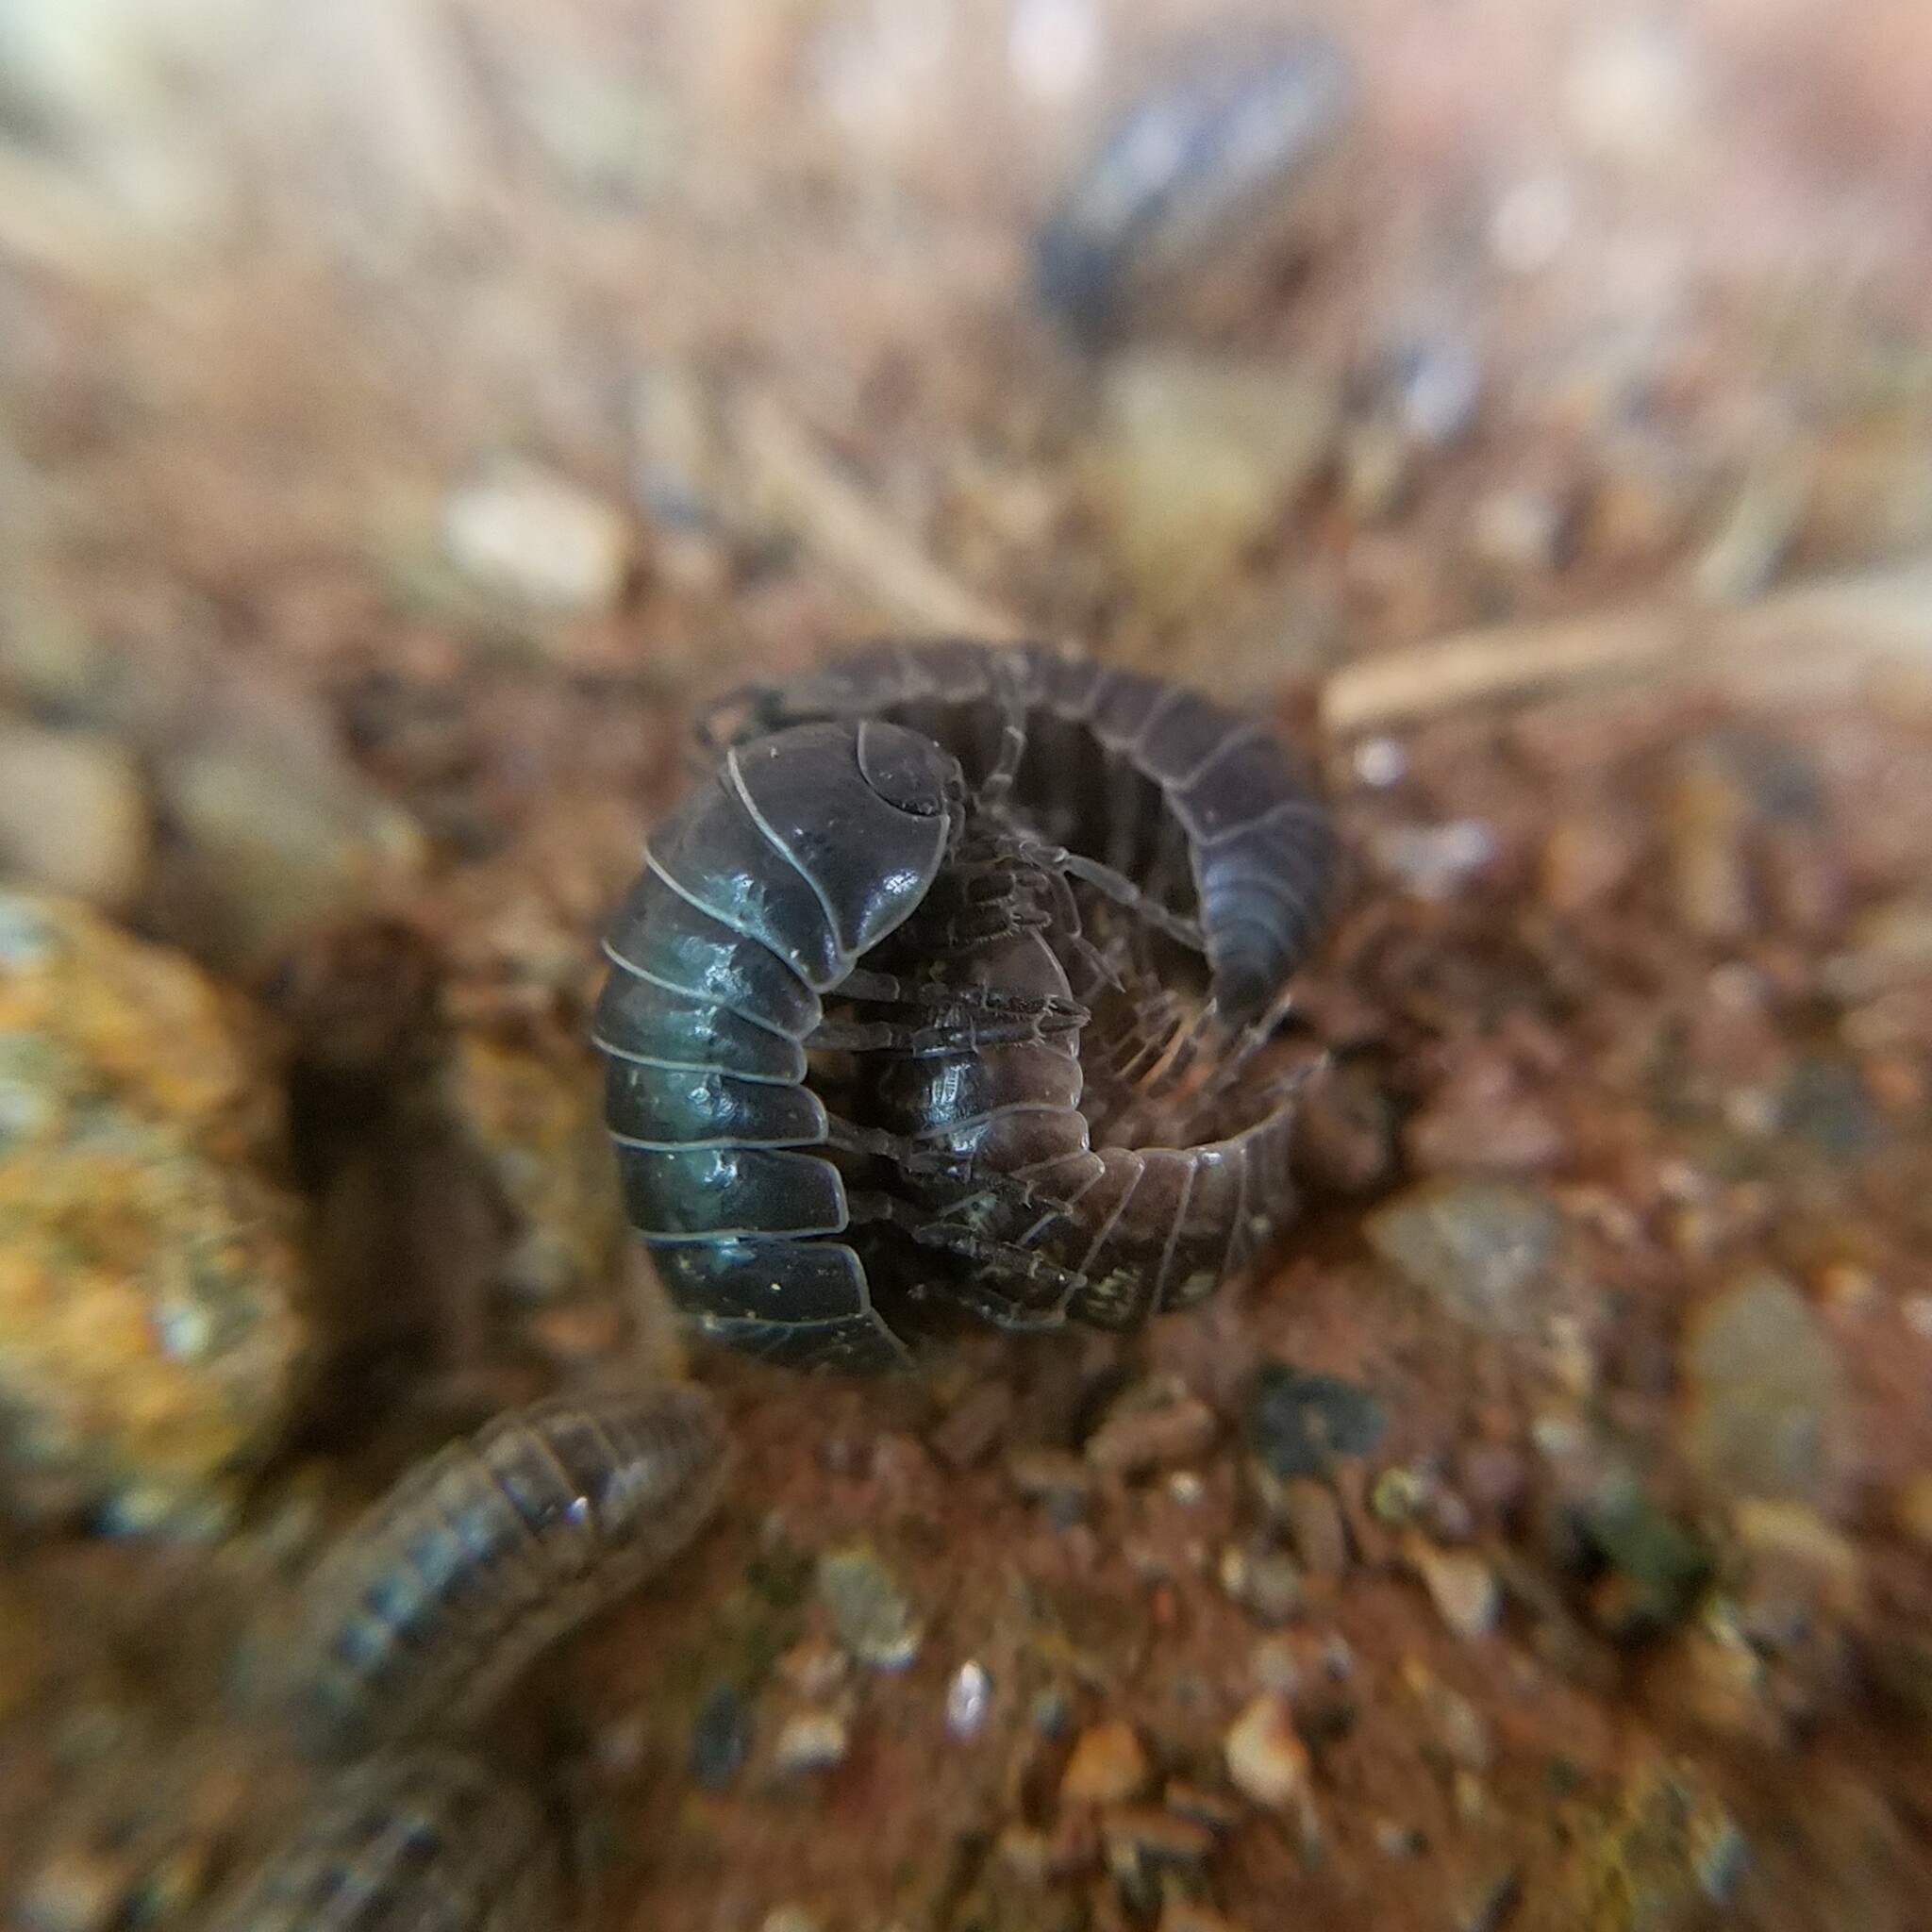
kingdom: Animalia
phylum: Arthropoda
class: Malacostraca
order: Isopoda
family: Armadillidiidae
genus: Armadillidium
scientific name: Armadillidium
